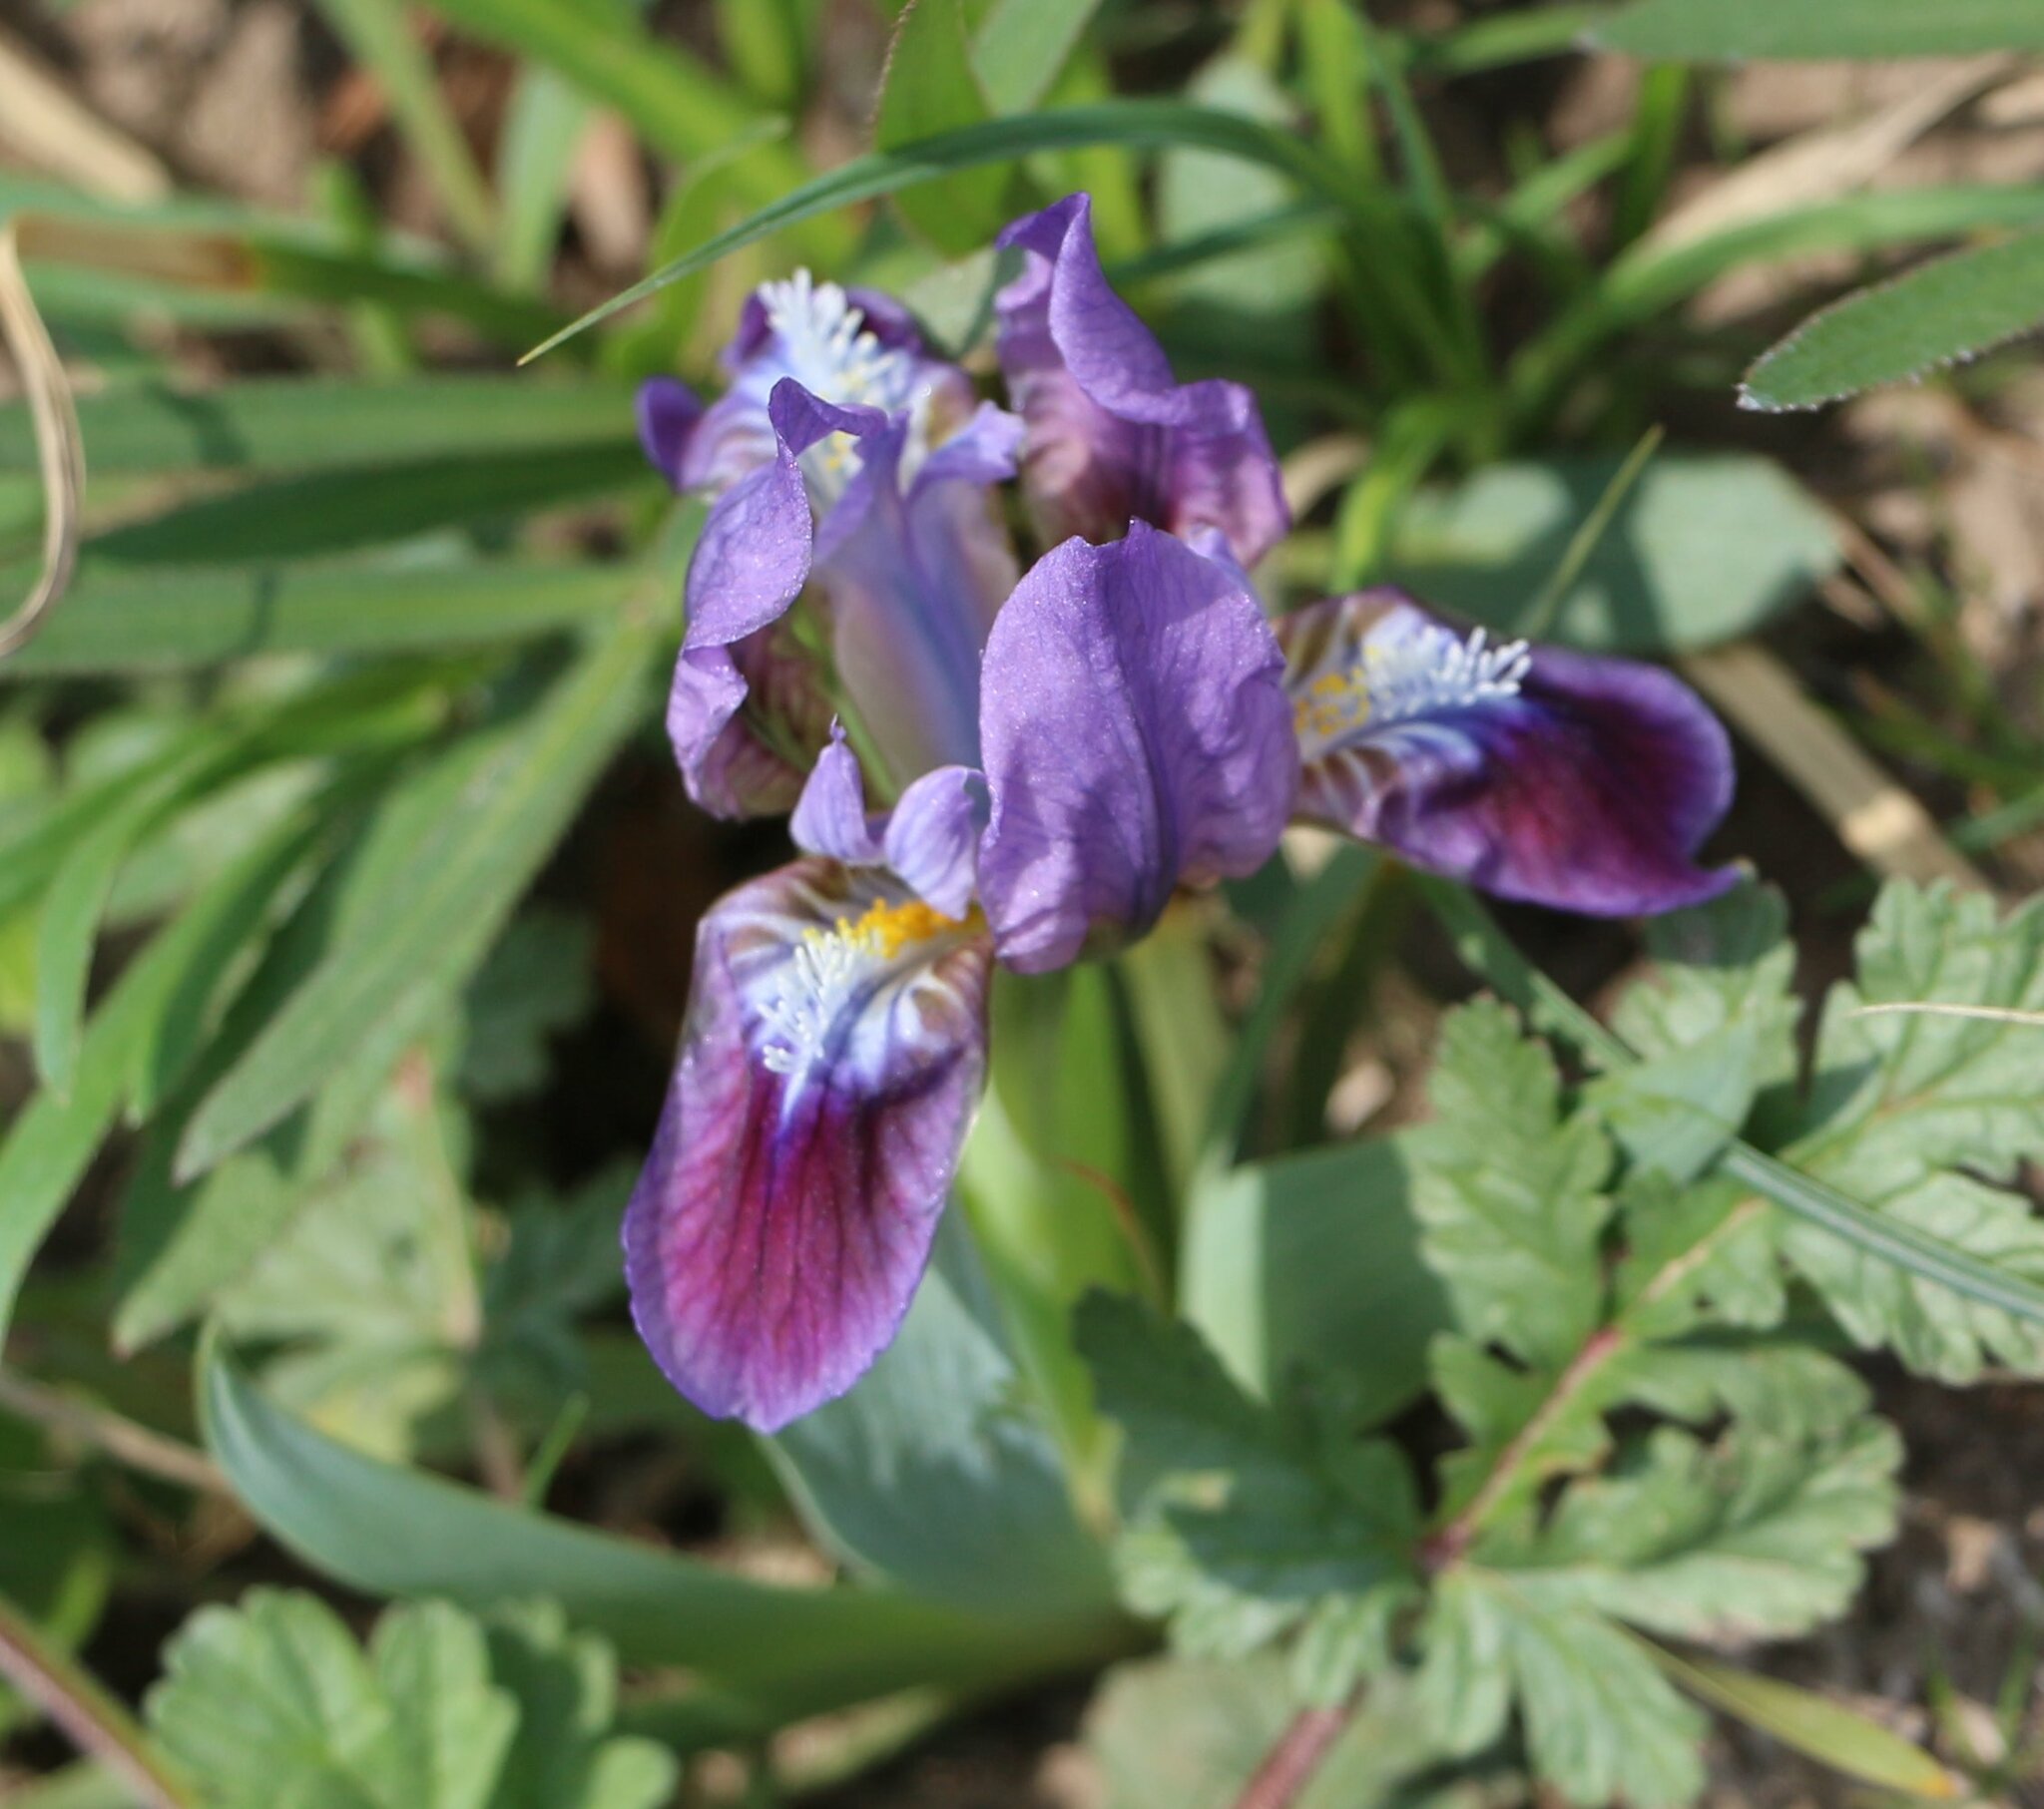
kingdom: Plantae
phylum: Tracheophyta
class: Liliopsida
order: Asparagales
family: Iridaceae
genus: Iris
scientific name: Iris pumila
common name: Dwarf iris
